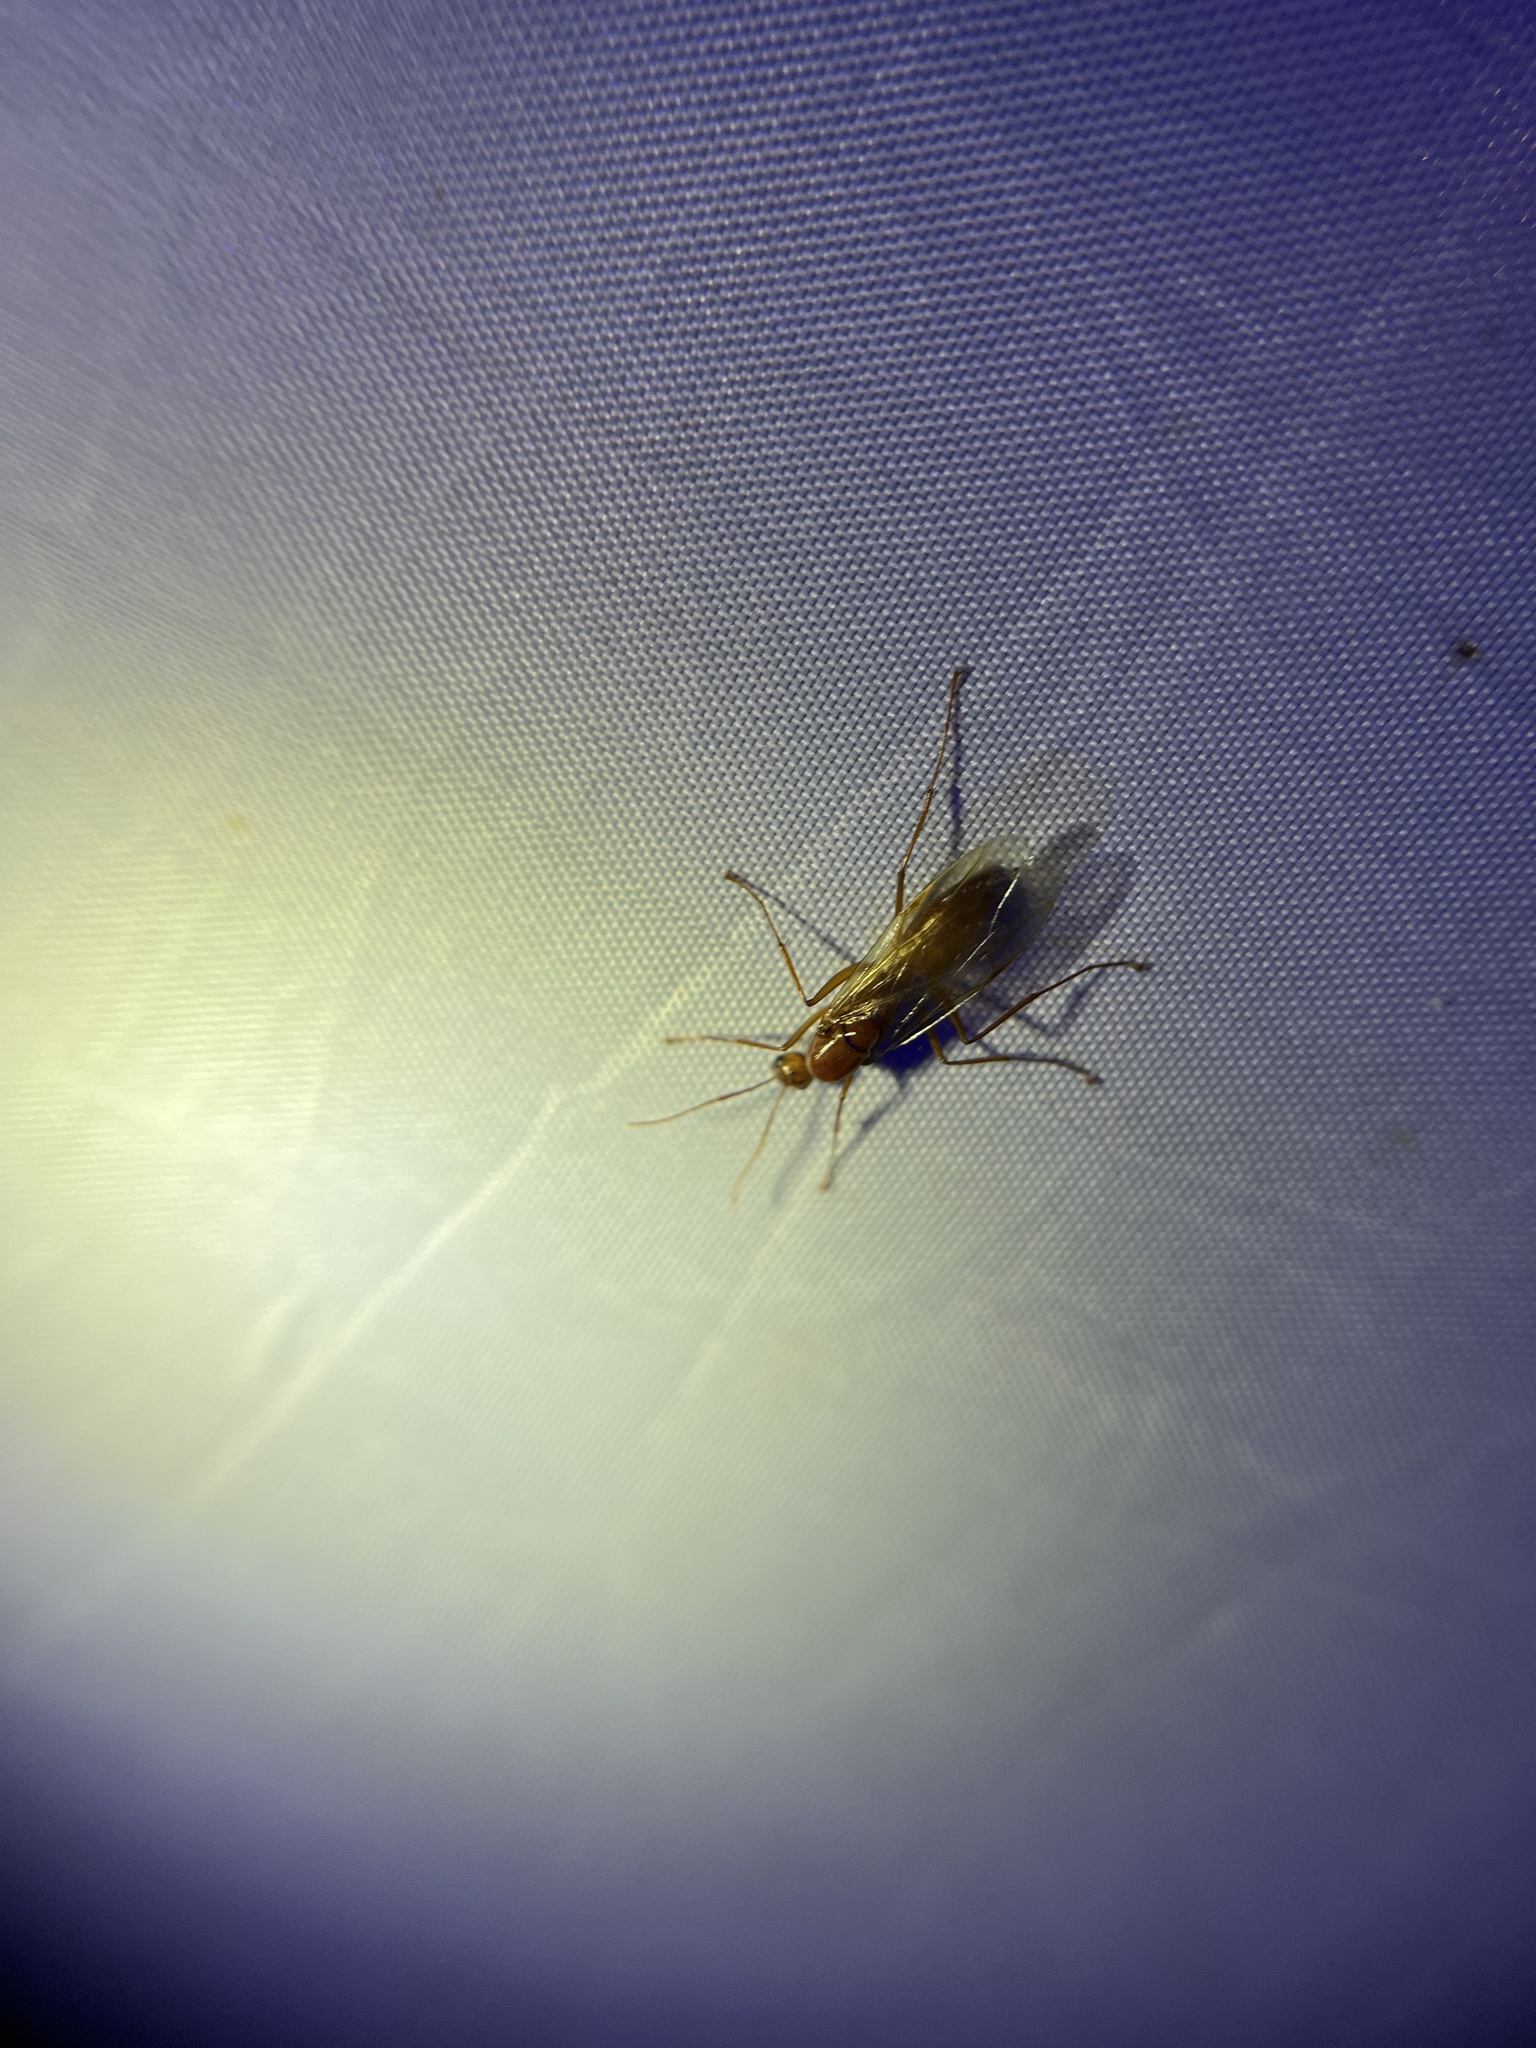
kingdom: Animalia
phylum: Arthropoda
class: Insecta
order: Hymenoptera
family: Formicidae
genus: Camponotus
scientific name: Camponotus castaneus
